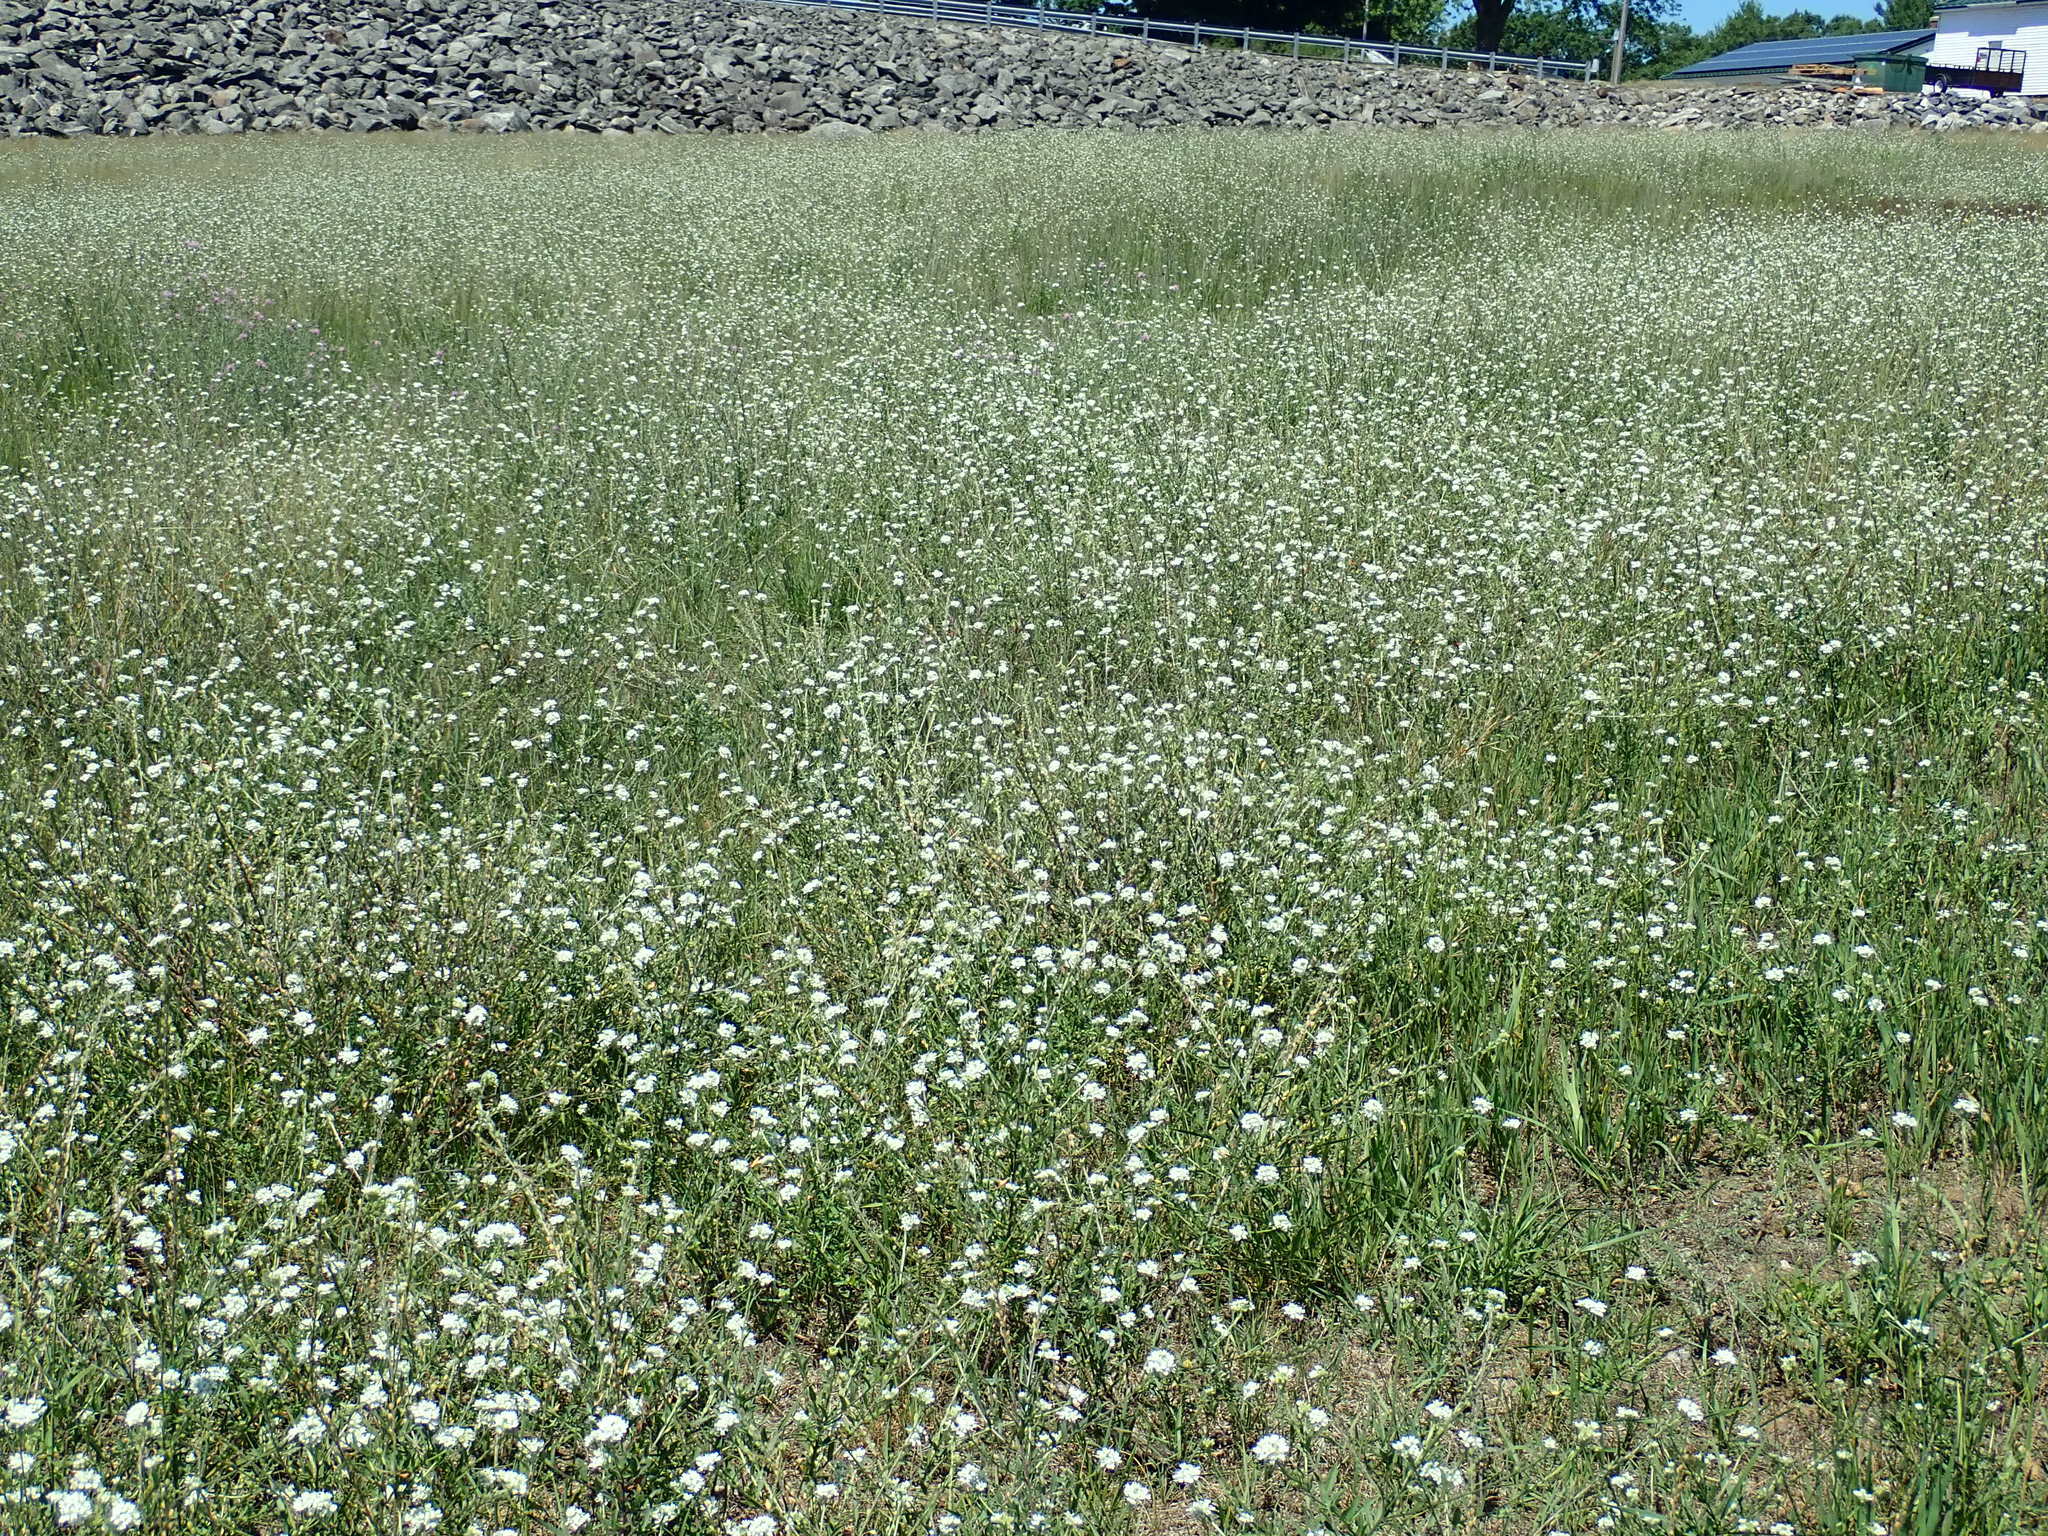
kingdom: Plantae
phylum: Tracheophyta
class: Magnoliopsida
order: Brassicales
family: Brassicaceae
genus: Berteroa
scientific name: Berteroa incana
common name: Hoary alison
